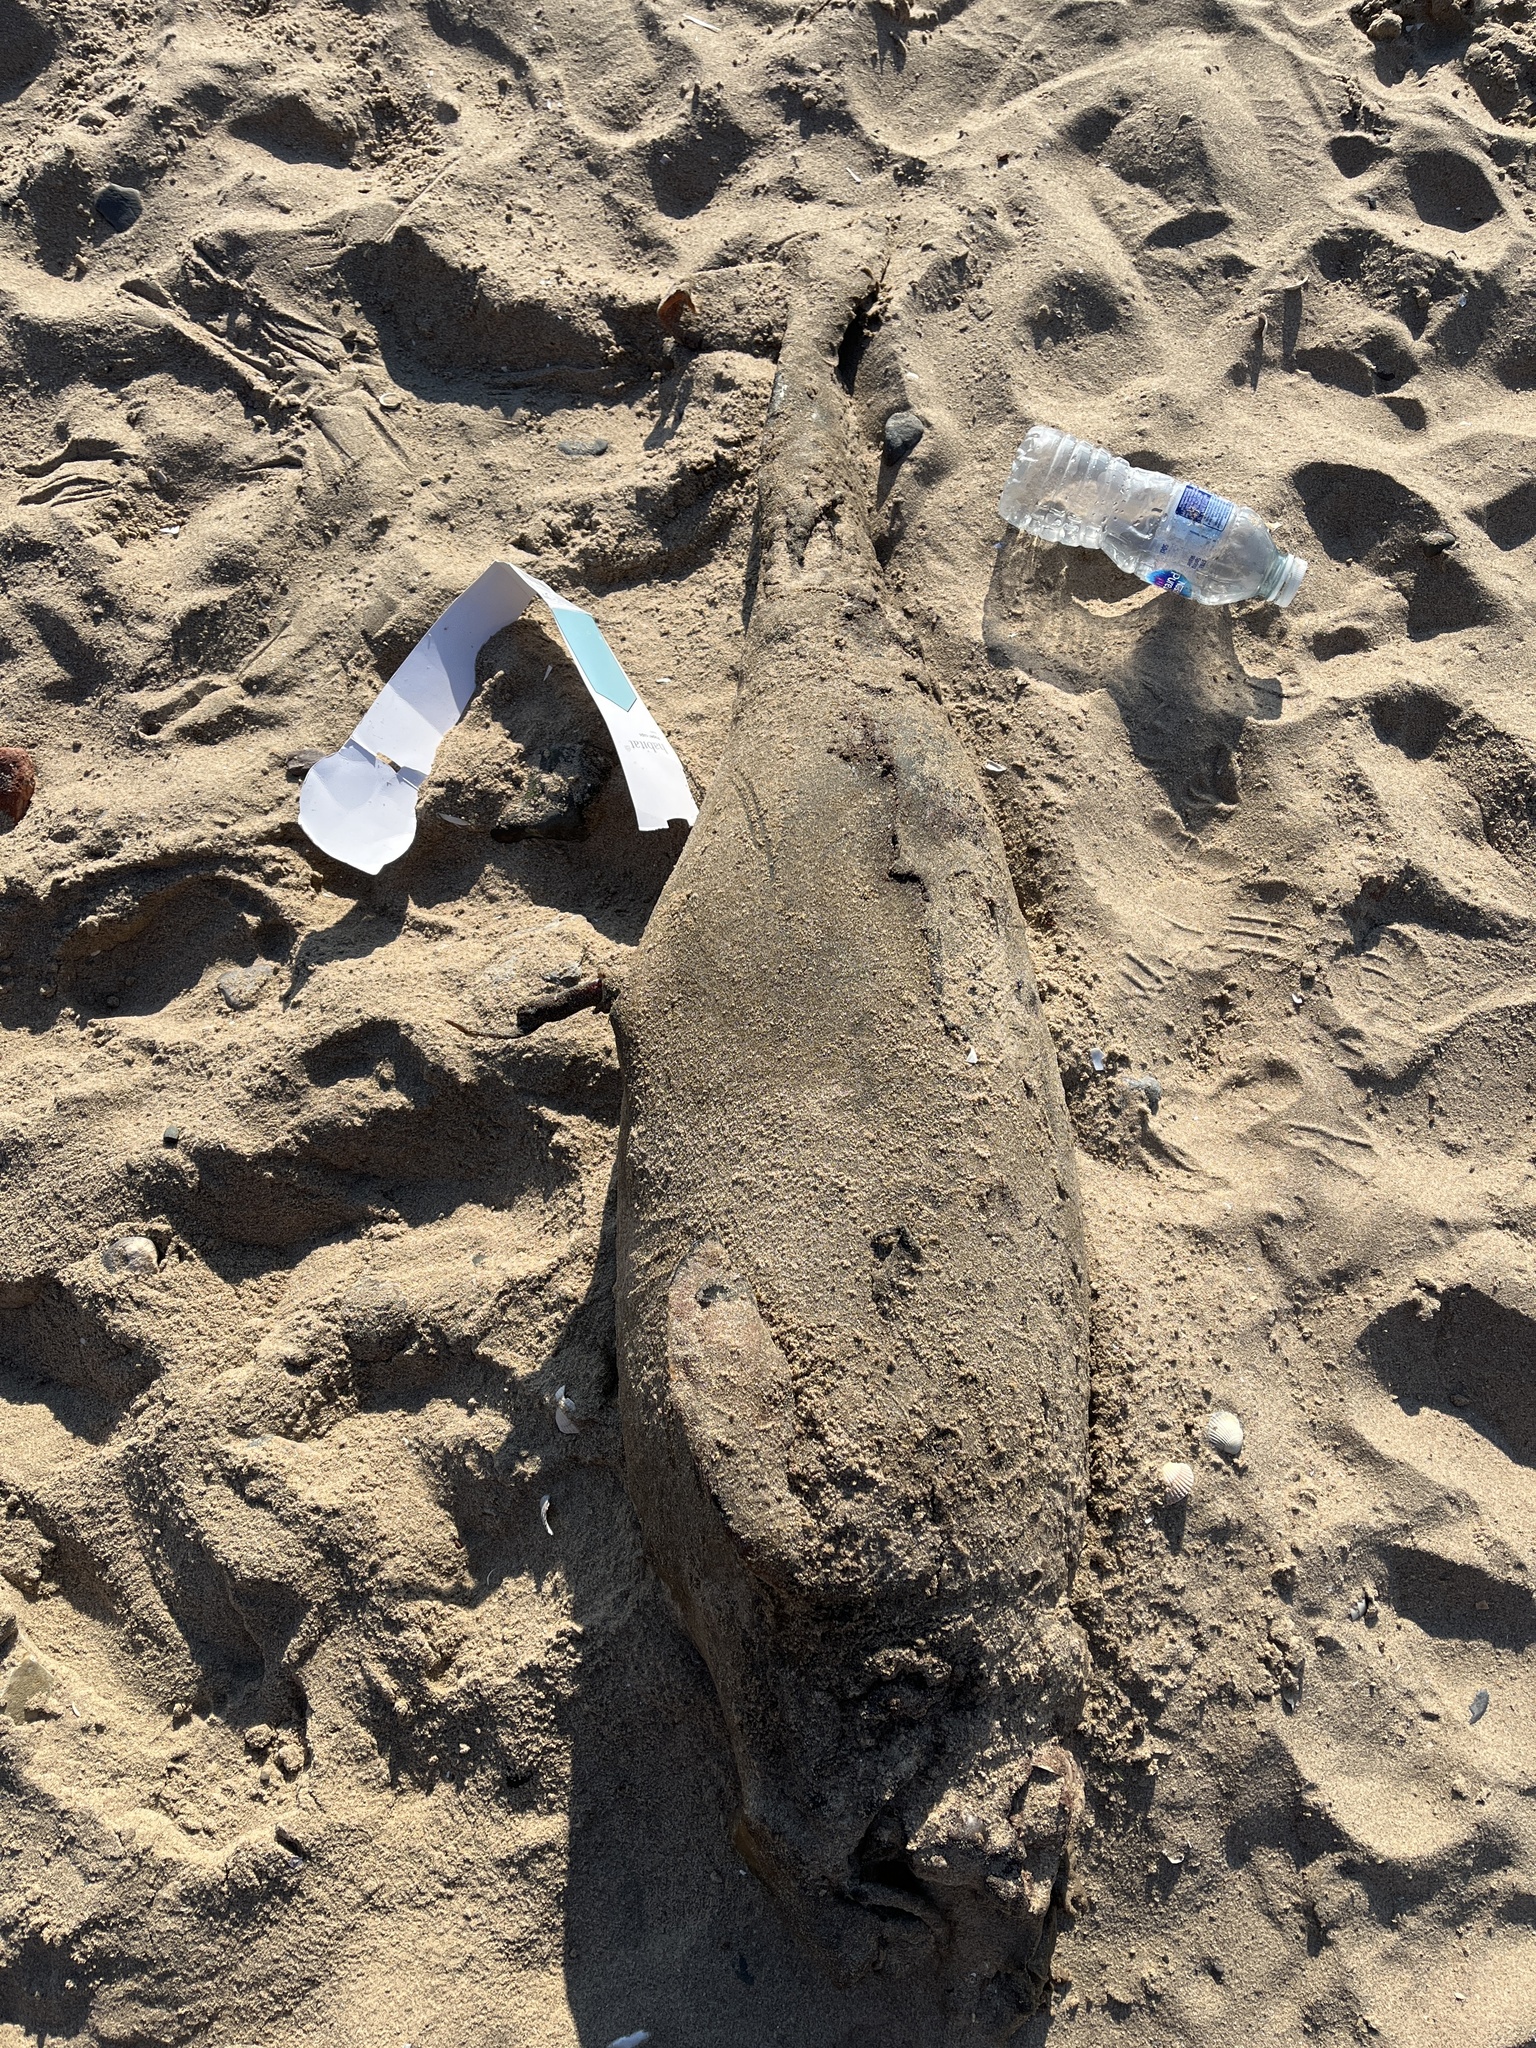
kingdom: Animalia
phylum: Chordata
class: Mammalia
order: Cetacea
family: Phocoenidae
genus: Phocoena
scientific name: Phocoena phocoena
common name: Harbor porpoise
